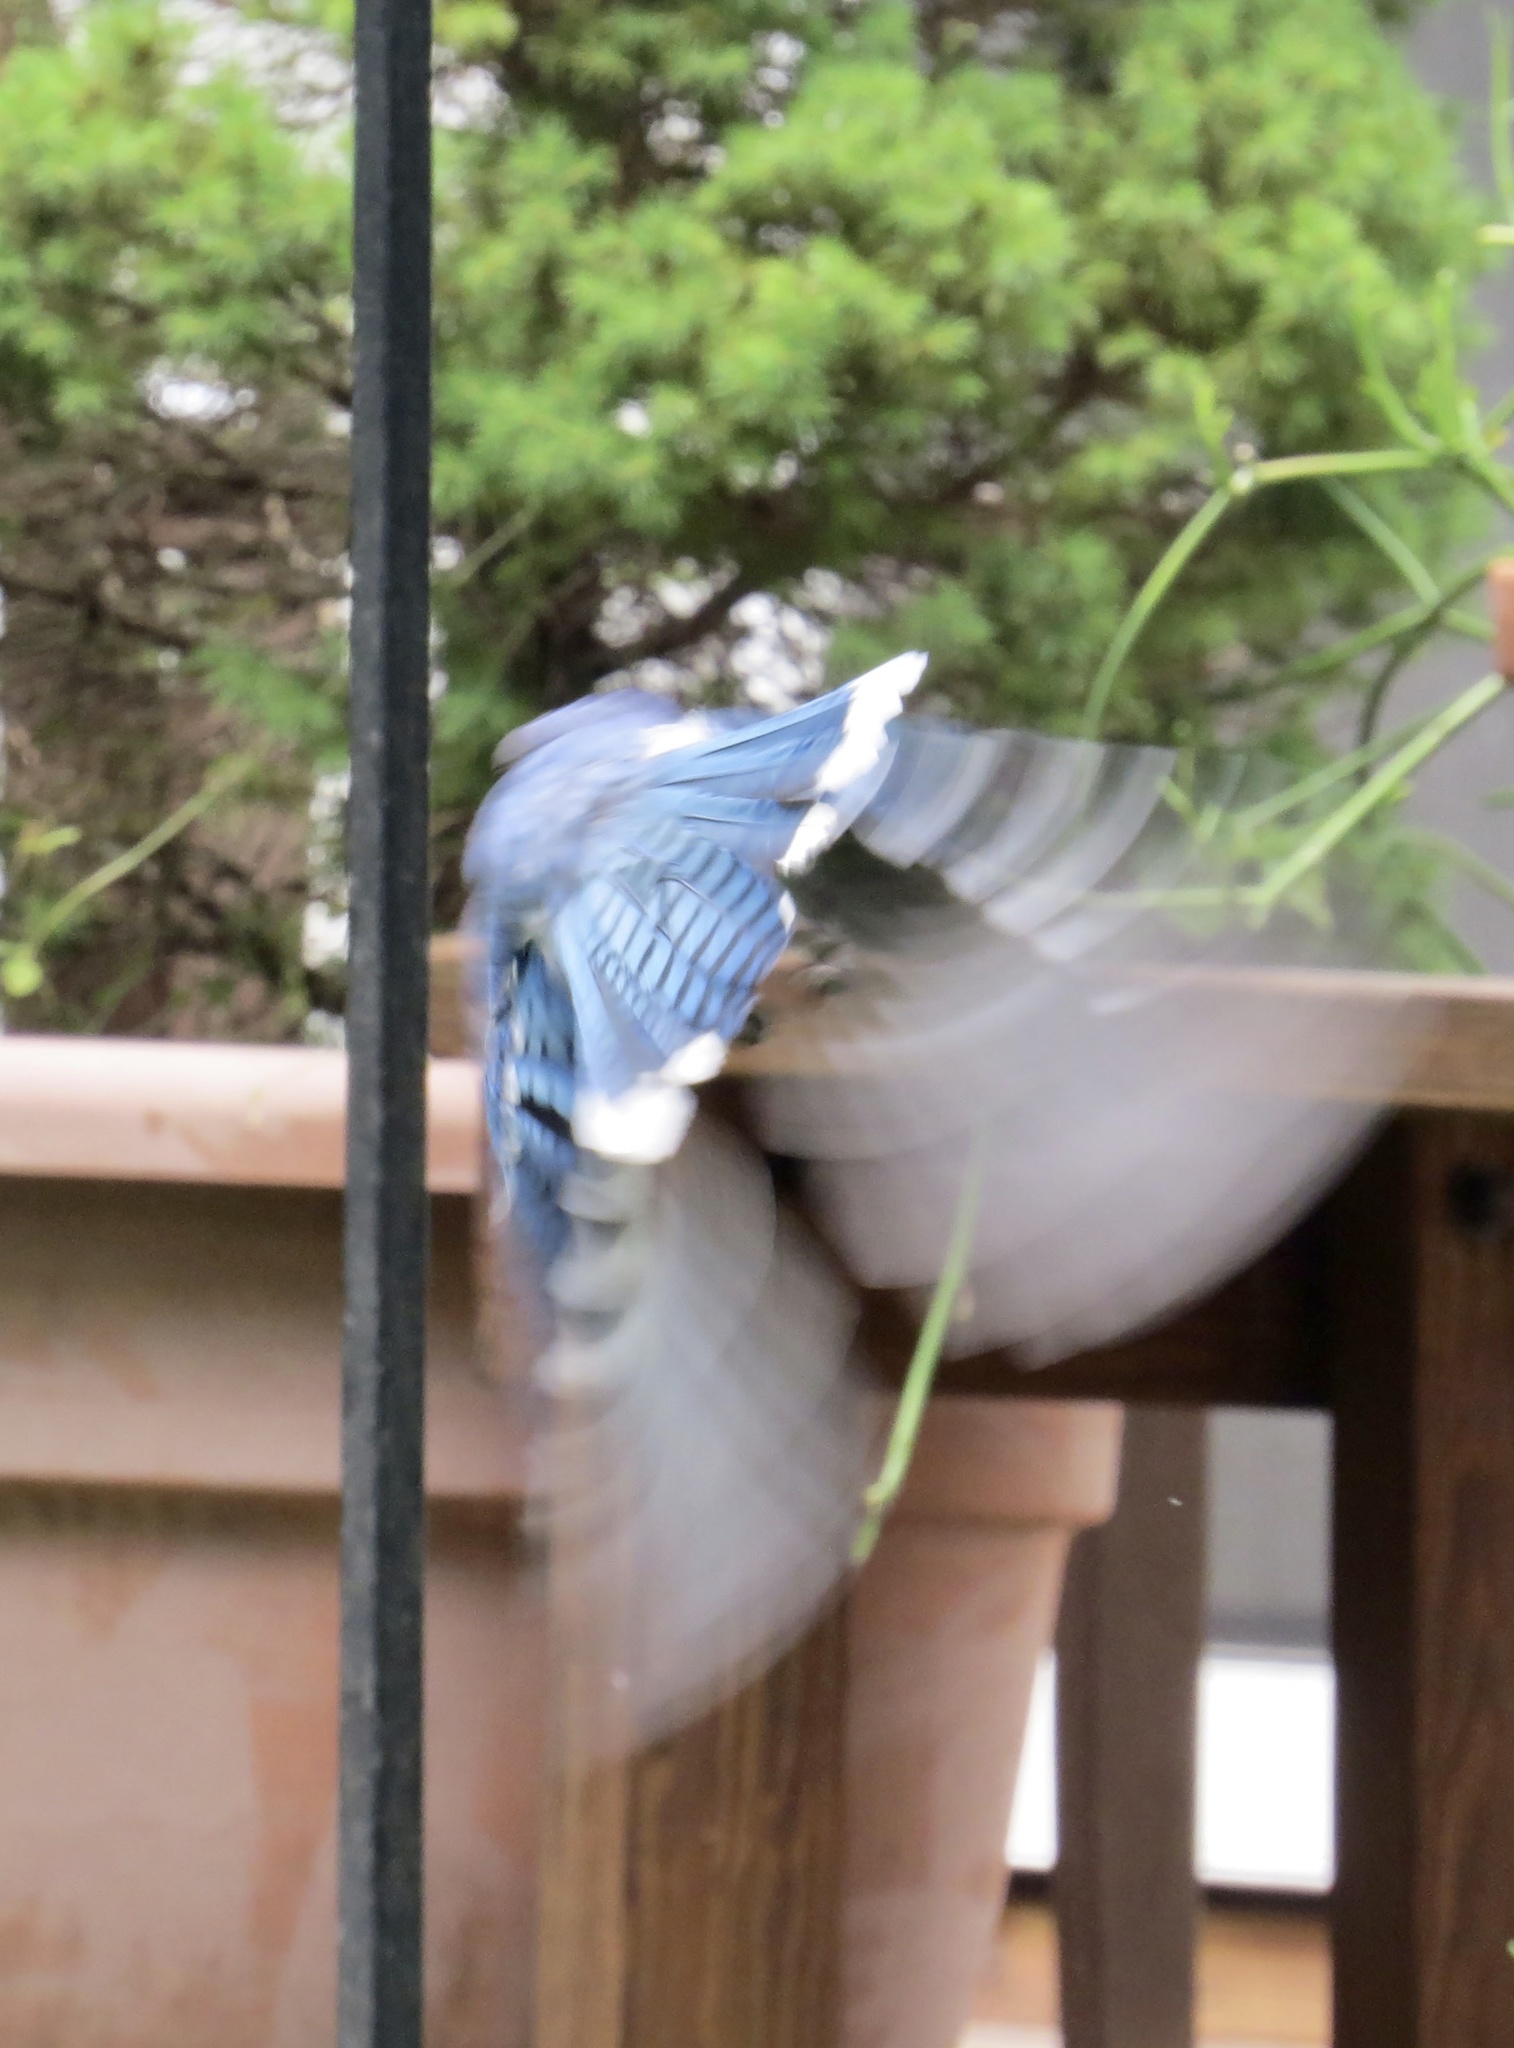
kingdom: Animalia
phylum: Chordata
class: Aves
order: Passeriformes
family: Corvidae
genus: Cyanocitta
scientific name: Cyanocitta cristata
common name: Blue jay
